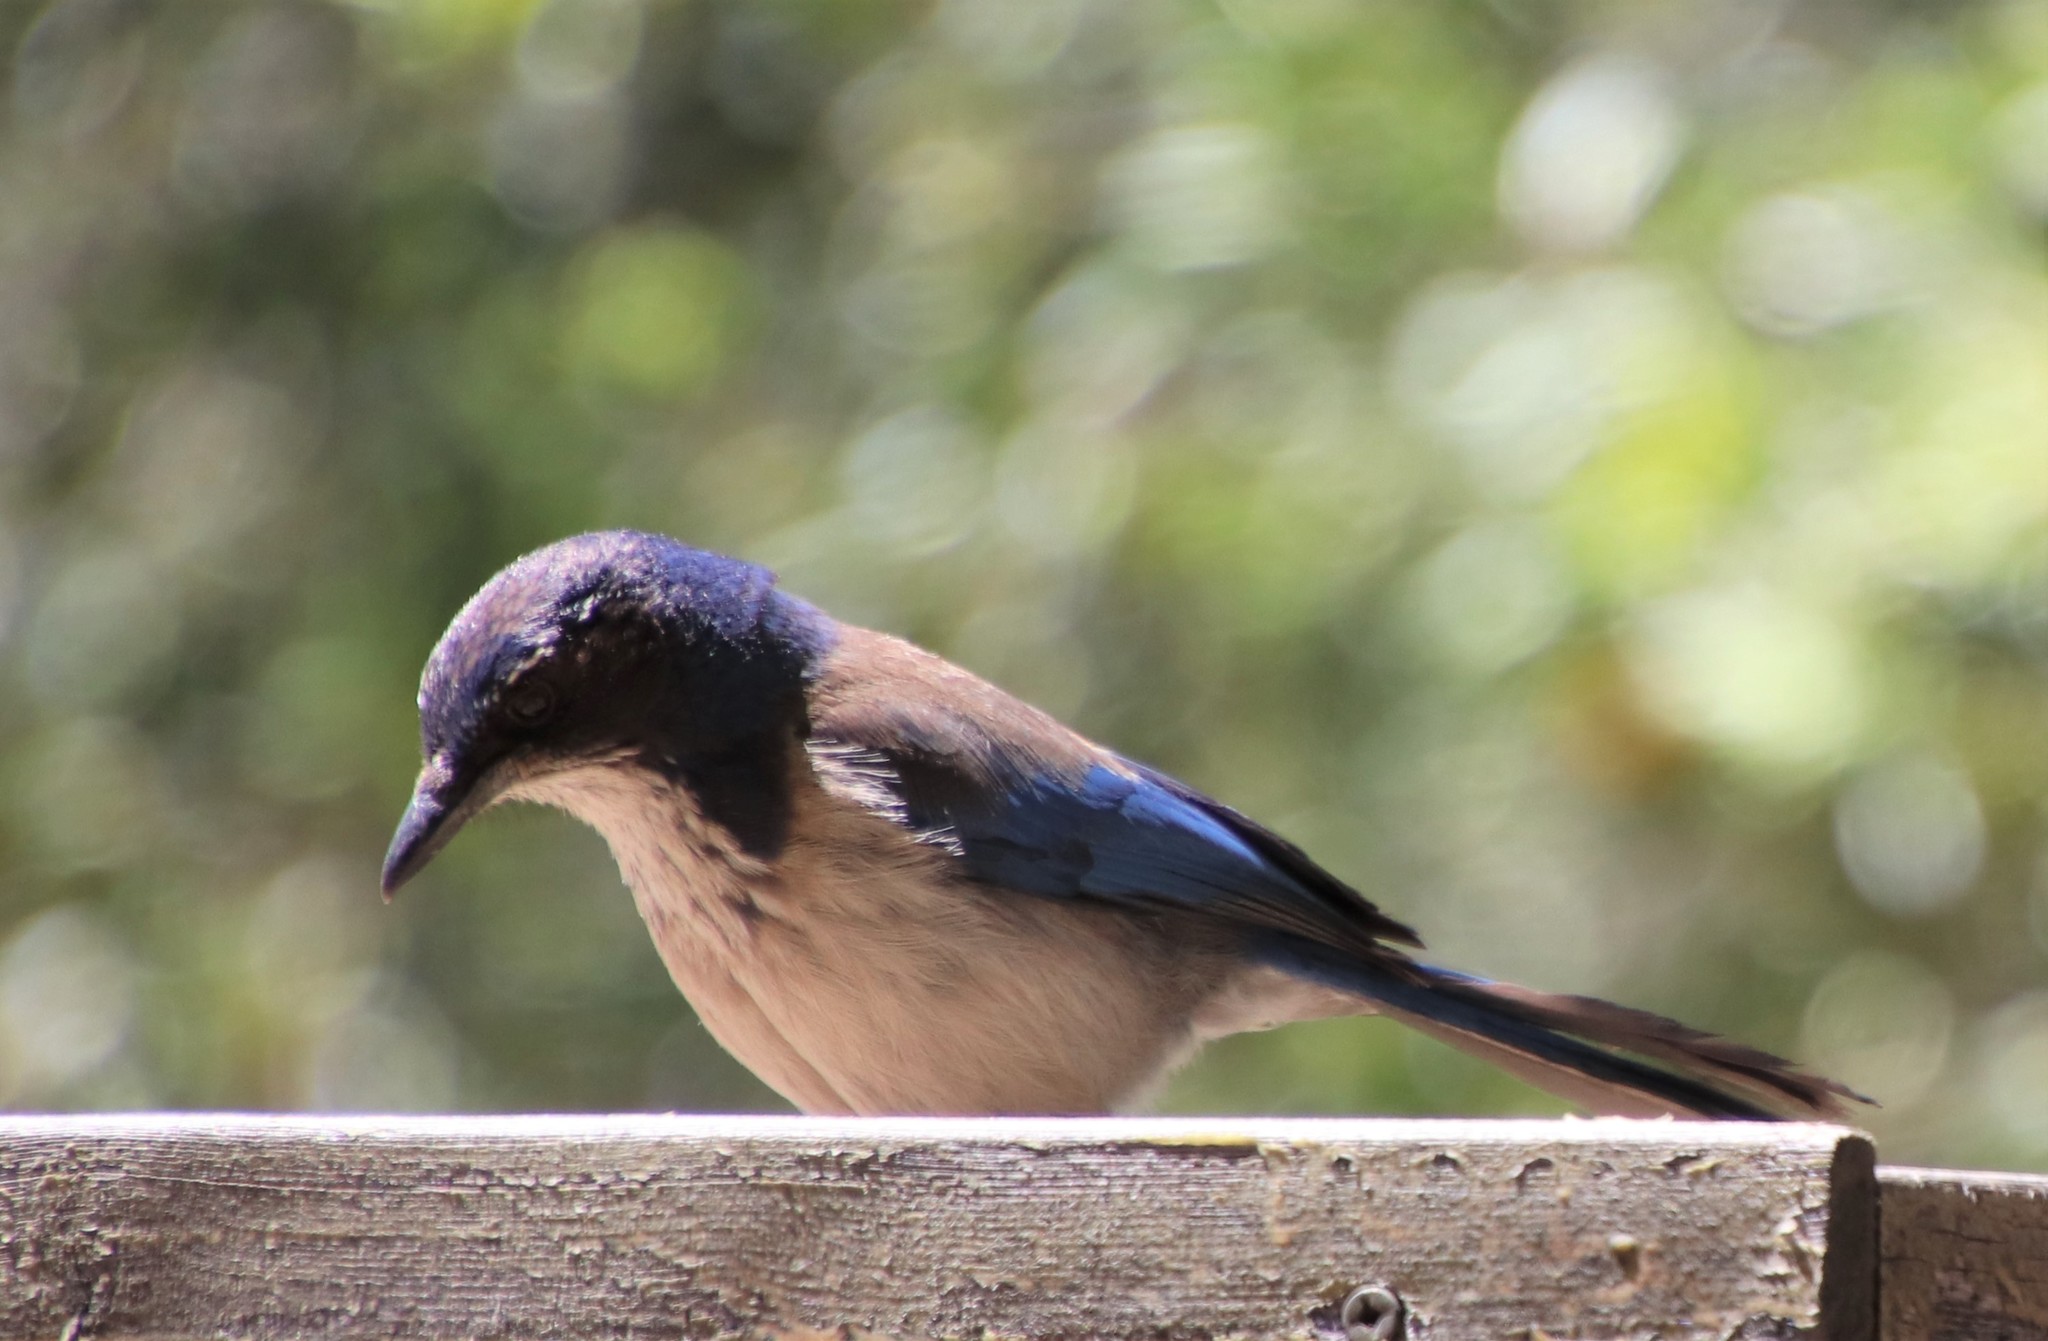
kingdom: Animalia
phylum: Chordata
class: Aves
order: Passeriformes
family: Corvidae
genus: Aphelocoma
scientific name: Aphelocoma californica
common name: California scrub-jay
